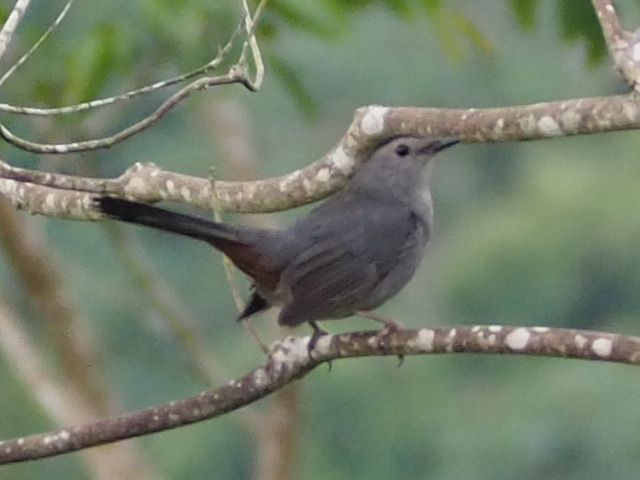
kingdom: Animalia
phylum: Chordata
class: Aves
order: Passeriformes
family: Mimidae
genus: Dumetella
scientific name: Dumetella carolinensis
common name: Gray catbird
